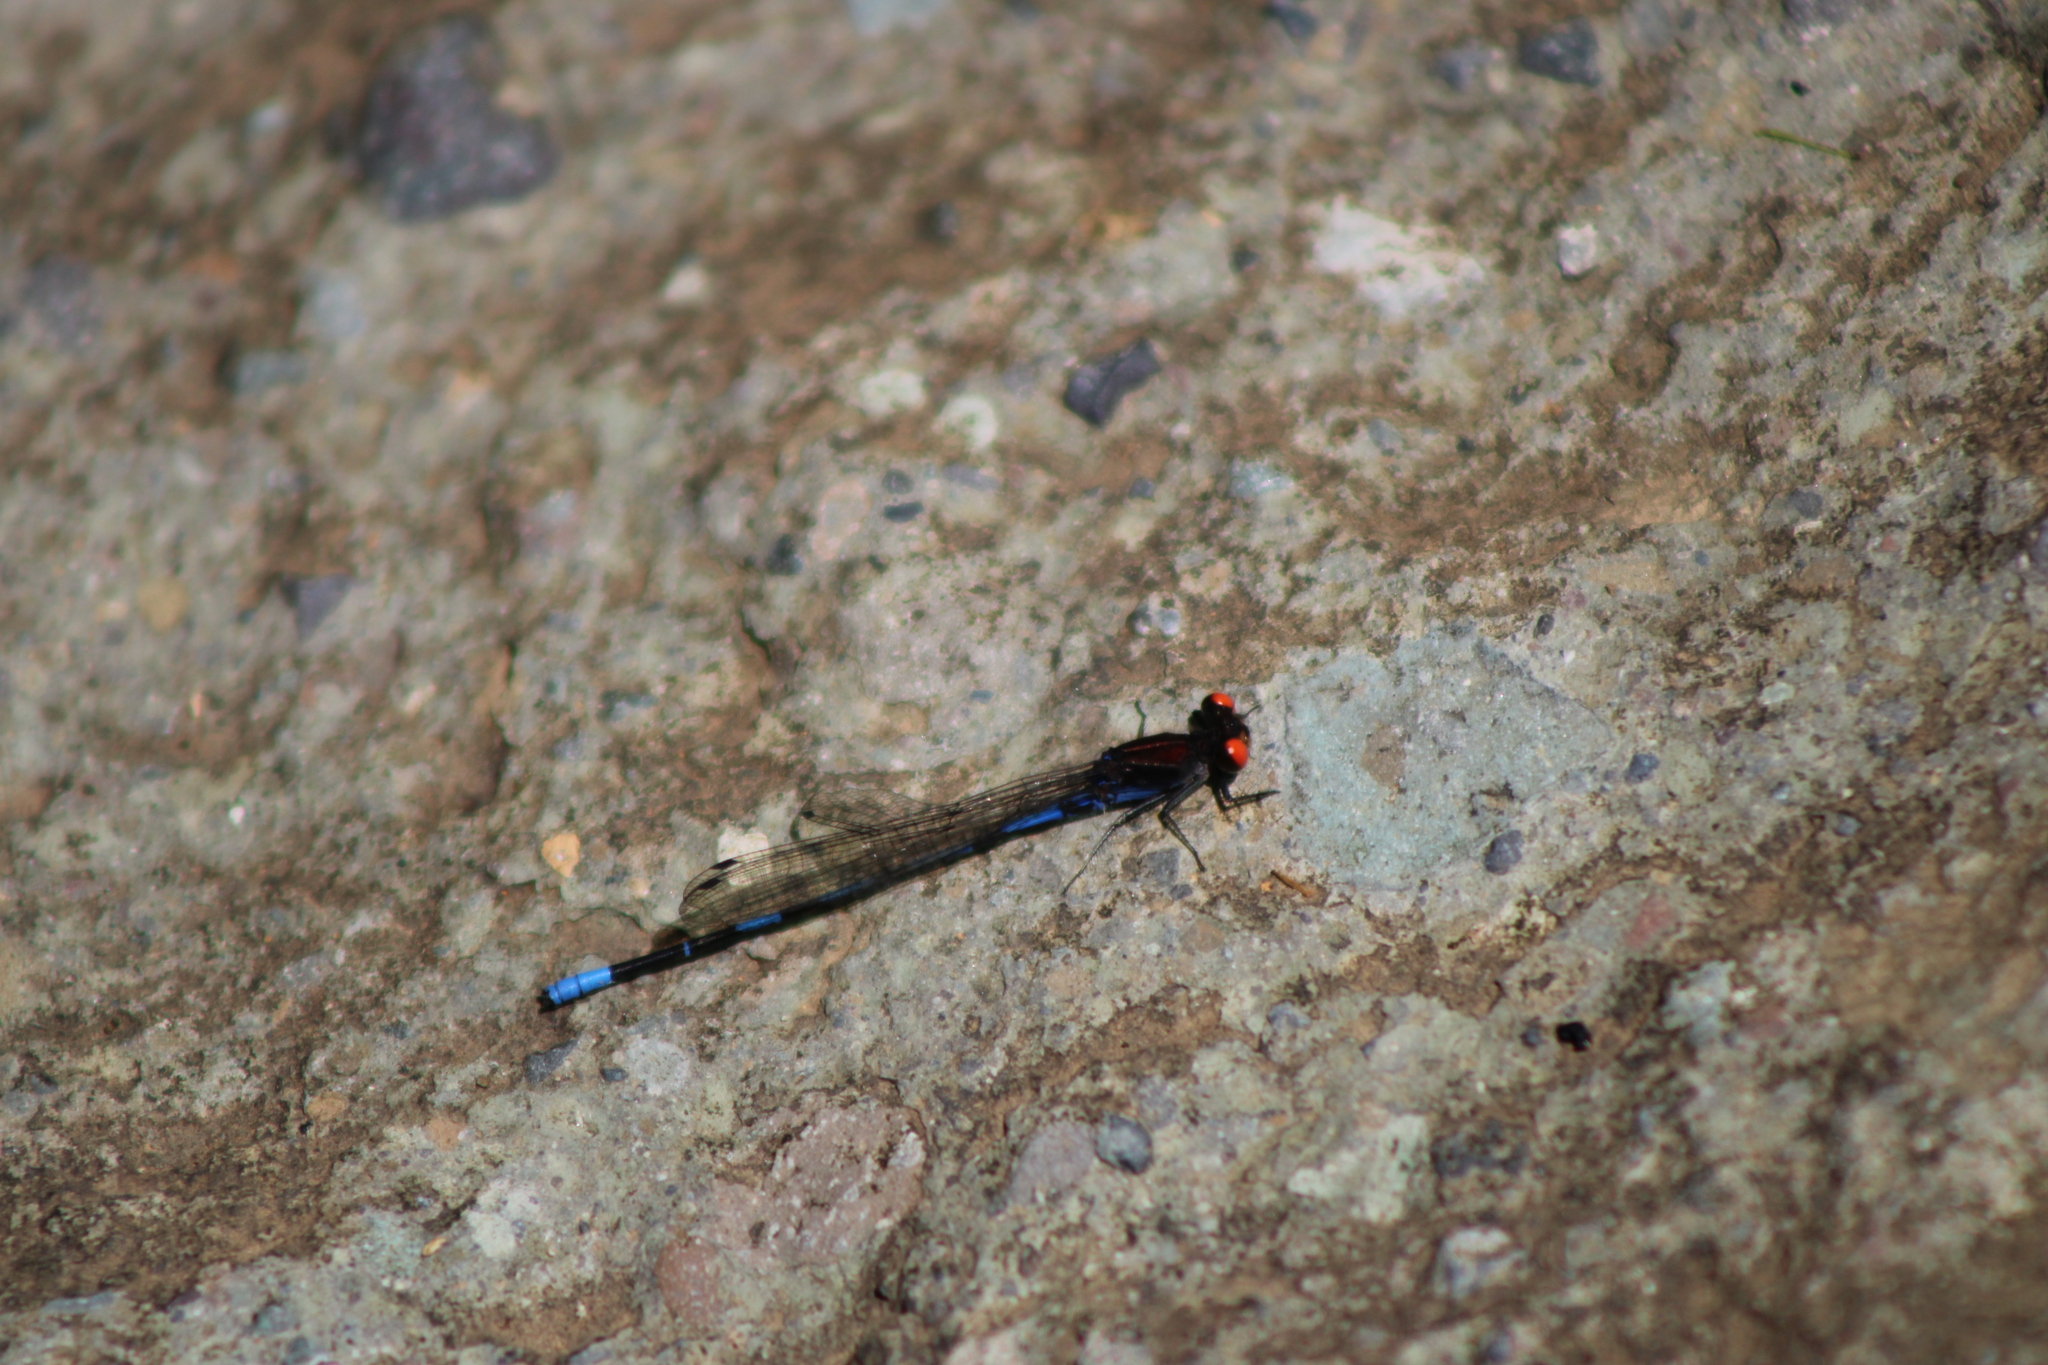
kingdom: Animalia
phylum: Arthropoda
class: Insecta
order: Odonata
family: Coenagrionidae
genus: Argia
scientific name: Argia oenea
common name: Fiery-eyed dancer
